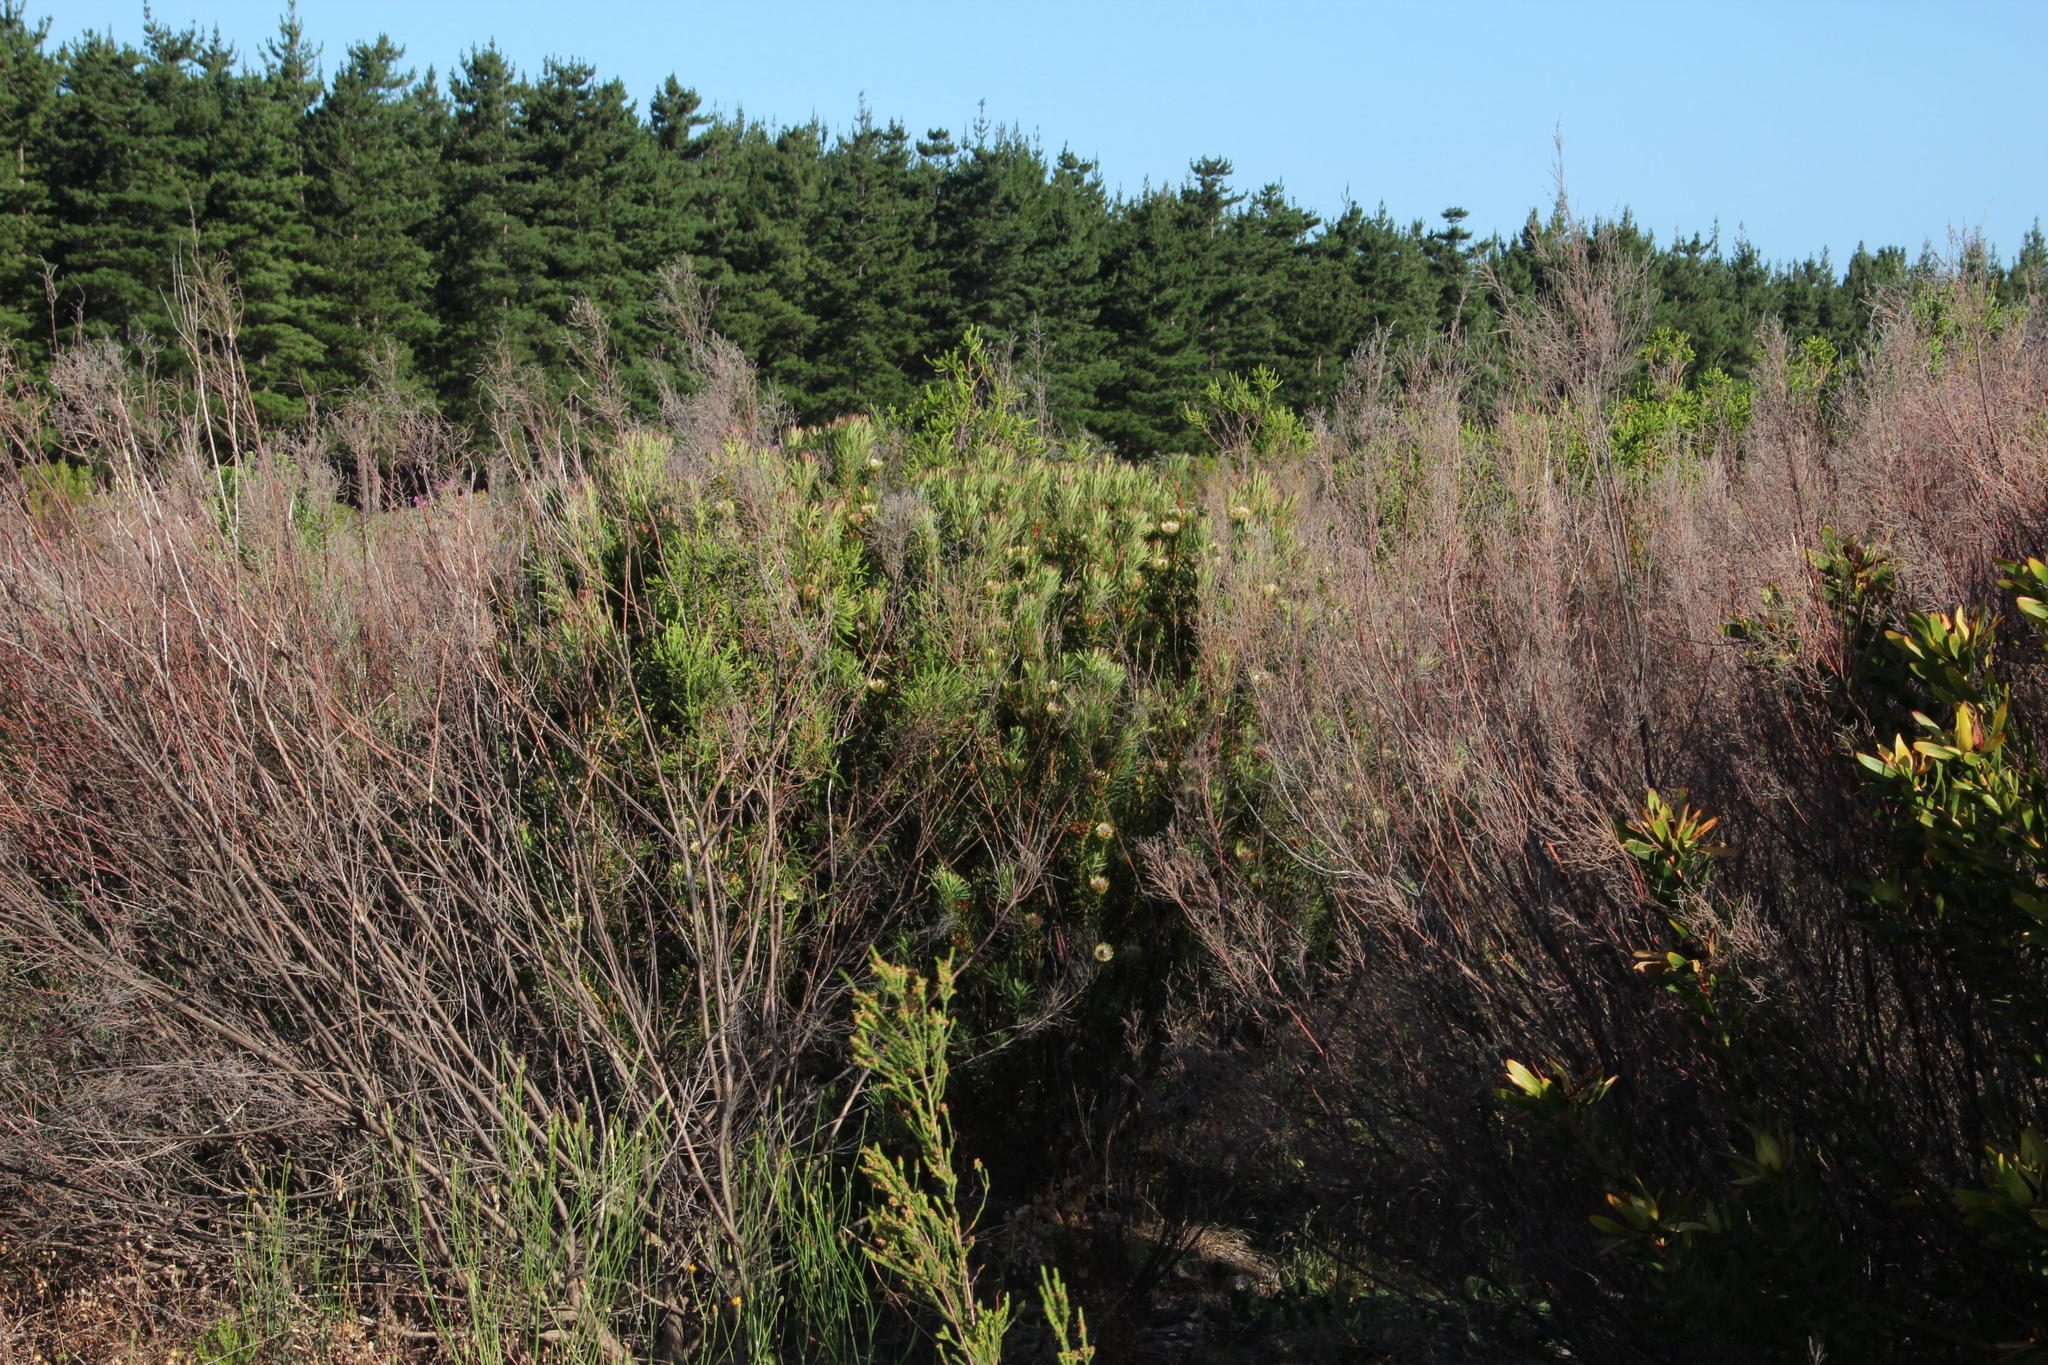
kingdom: Plantae
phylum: Tracheophyta
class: Magnoliopsida
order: Proteales
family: Proteaceae
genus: Protea
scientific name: Protea scolymocephala
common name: Thistle sugarbush
